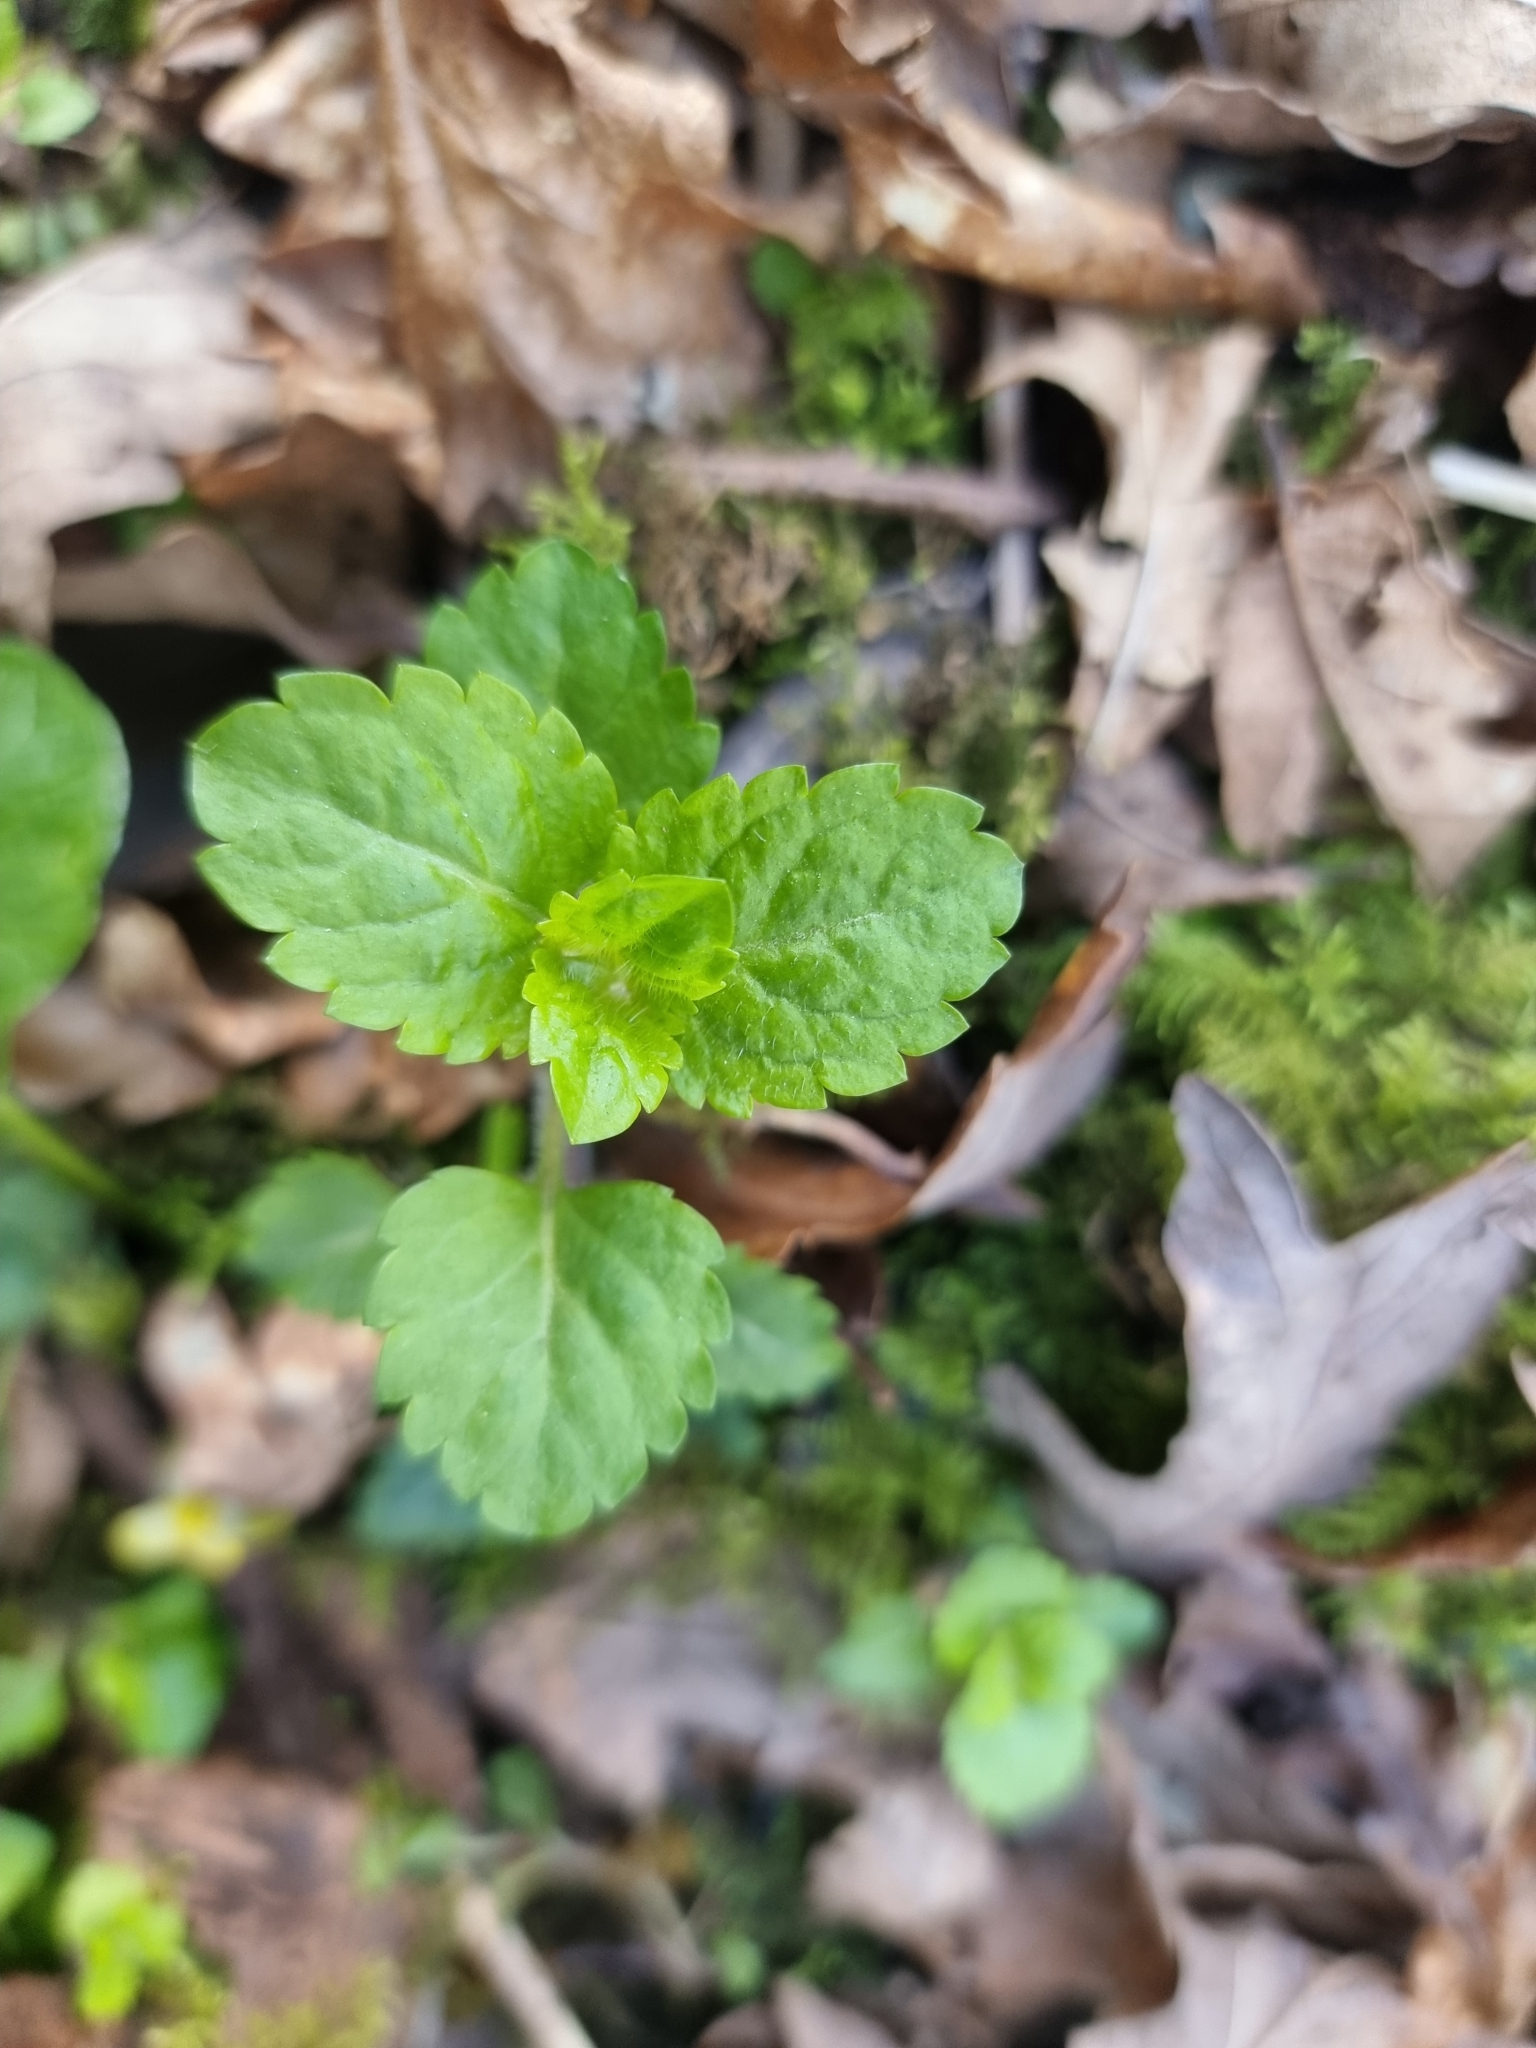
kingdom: Plantae
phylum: Tracheophyta
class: Magnoliopsida
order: Lamiales
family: Plantaginaceae
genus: Veronica
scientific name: Veronica montana
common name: Wood speedwell
